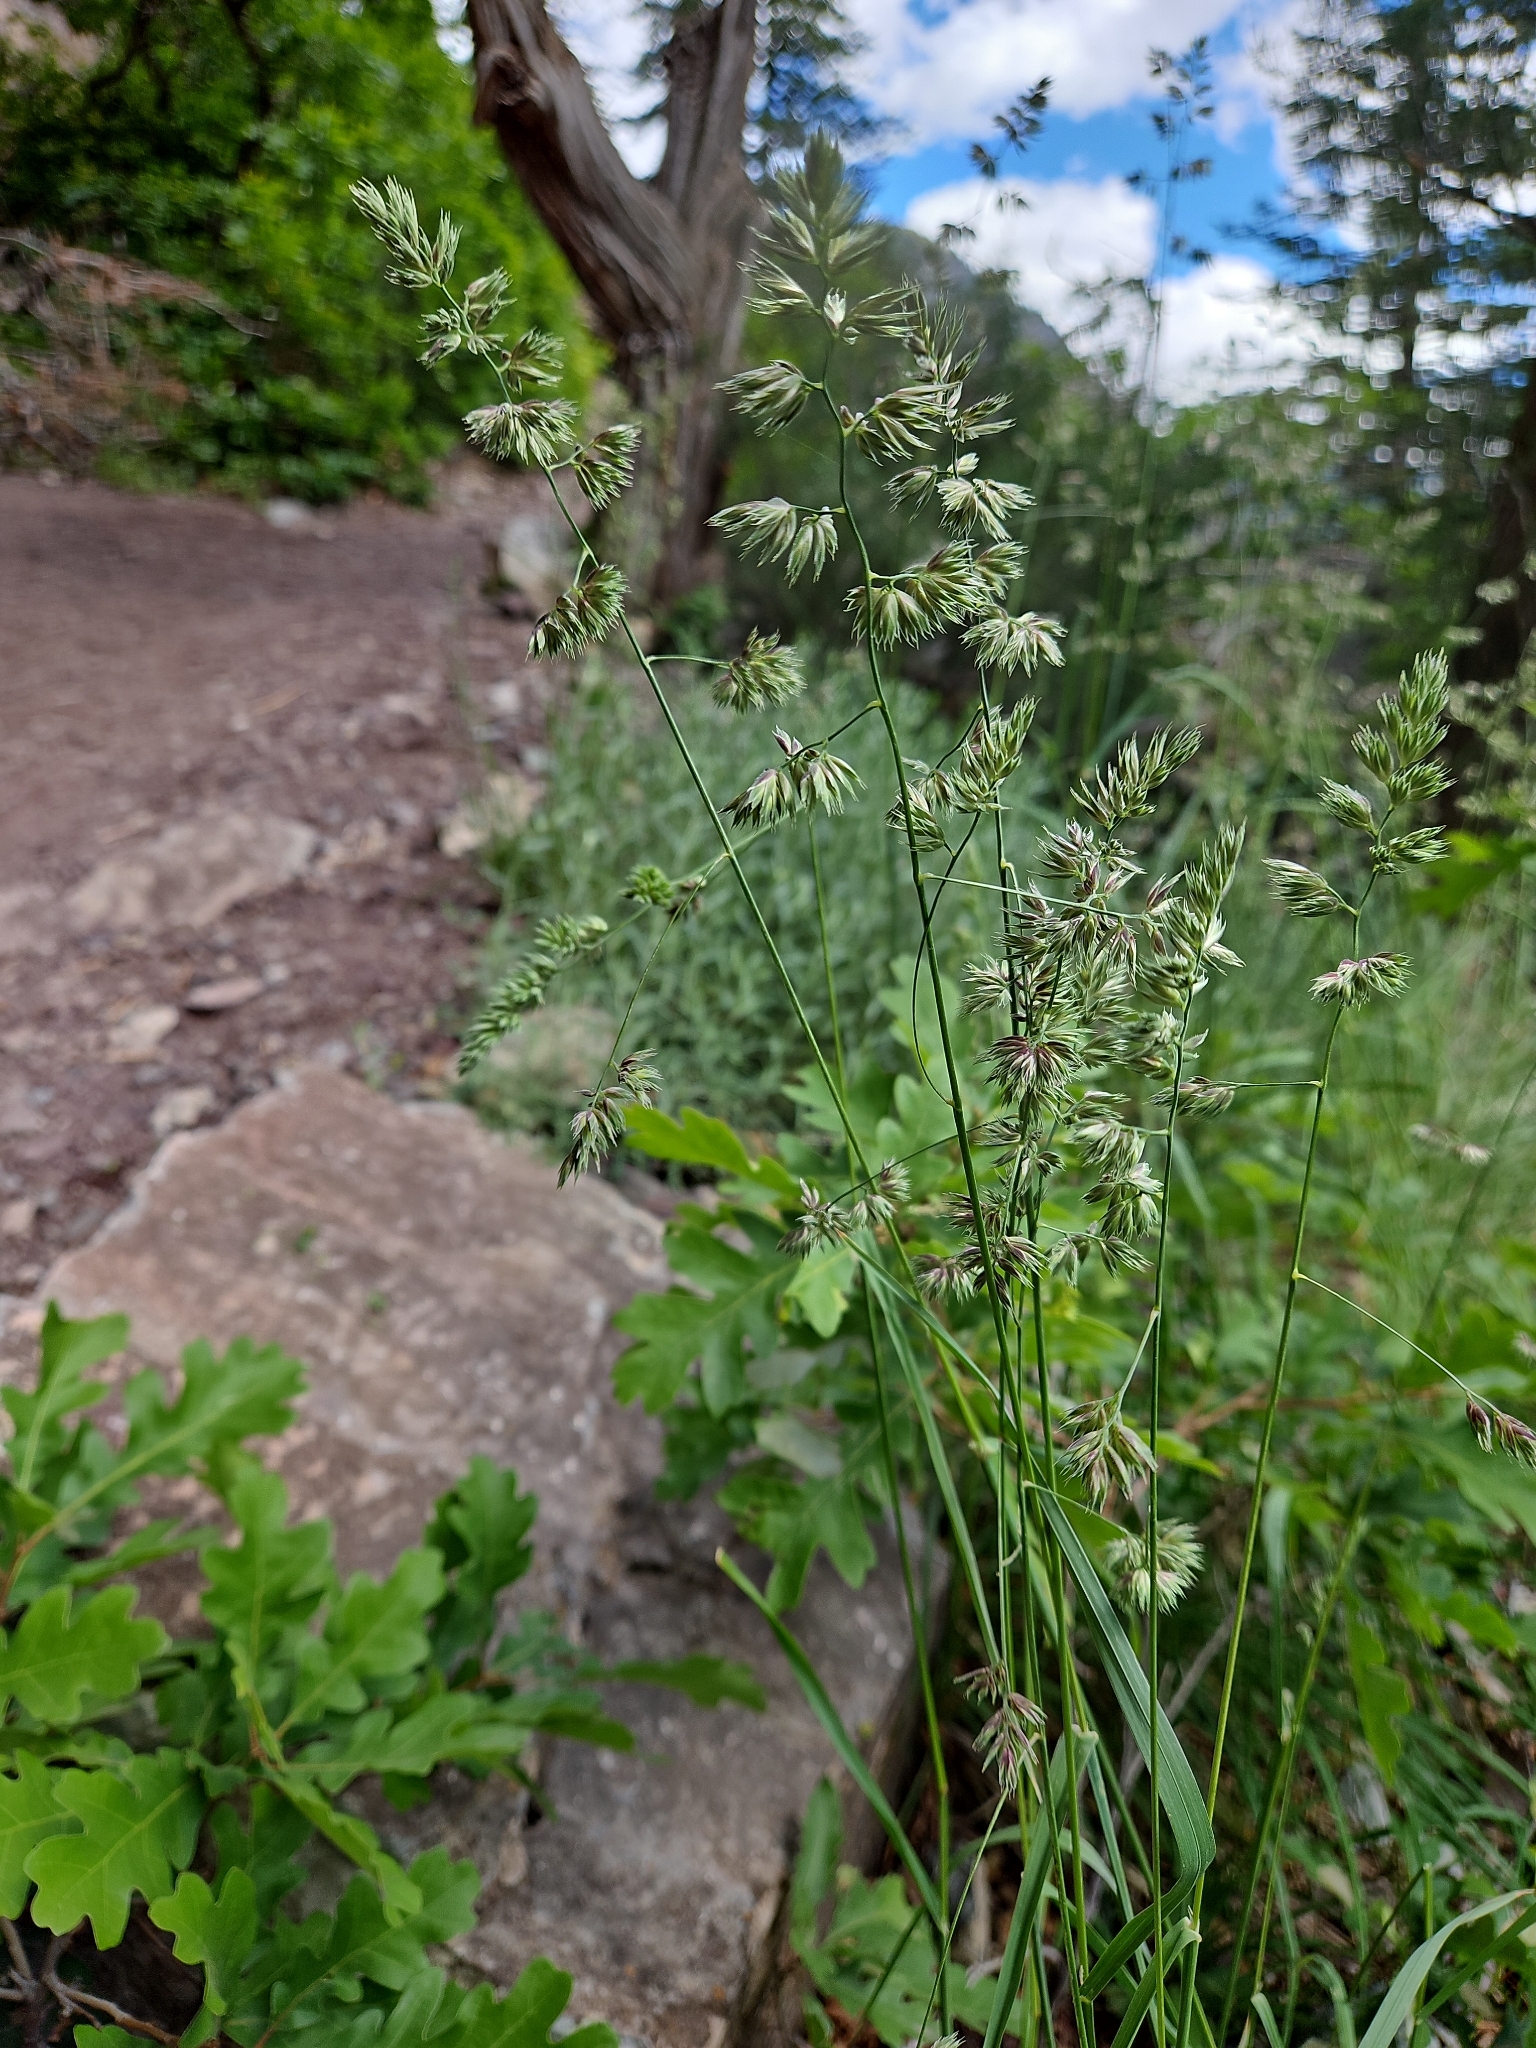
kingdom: Plantae
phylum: Tracheophyta
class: Liliopsida
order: Poales
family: Poaceae
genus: Dactylis
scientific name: Dactylis glomerata
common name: Orchardgrass
